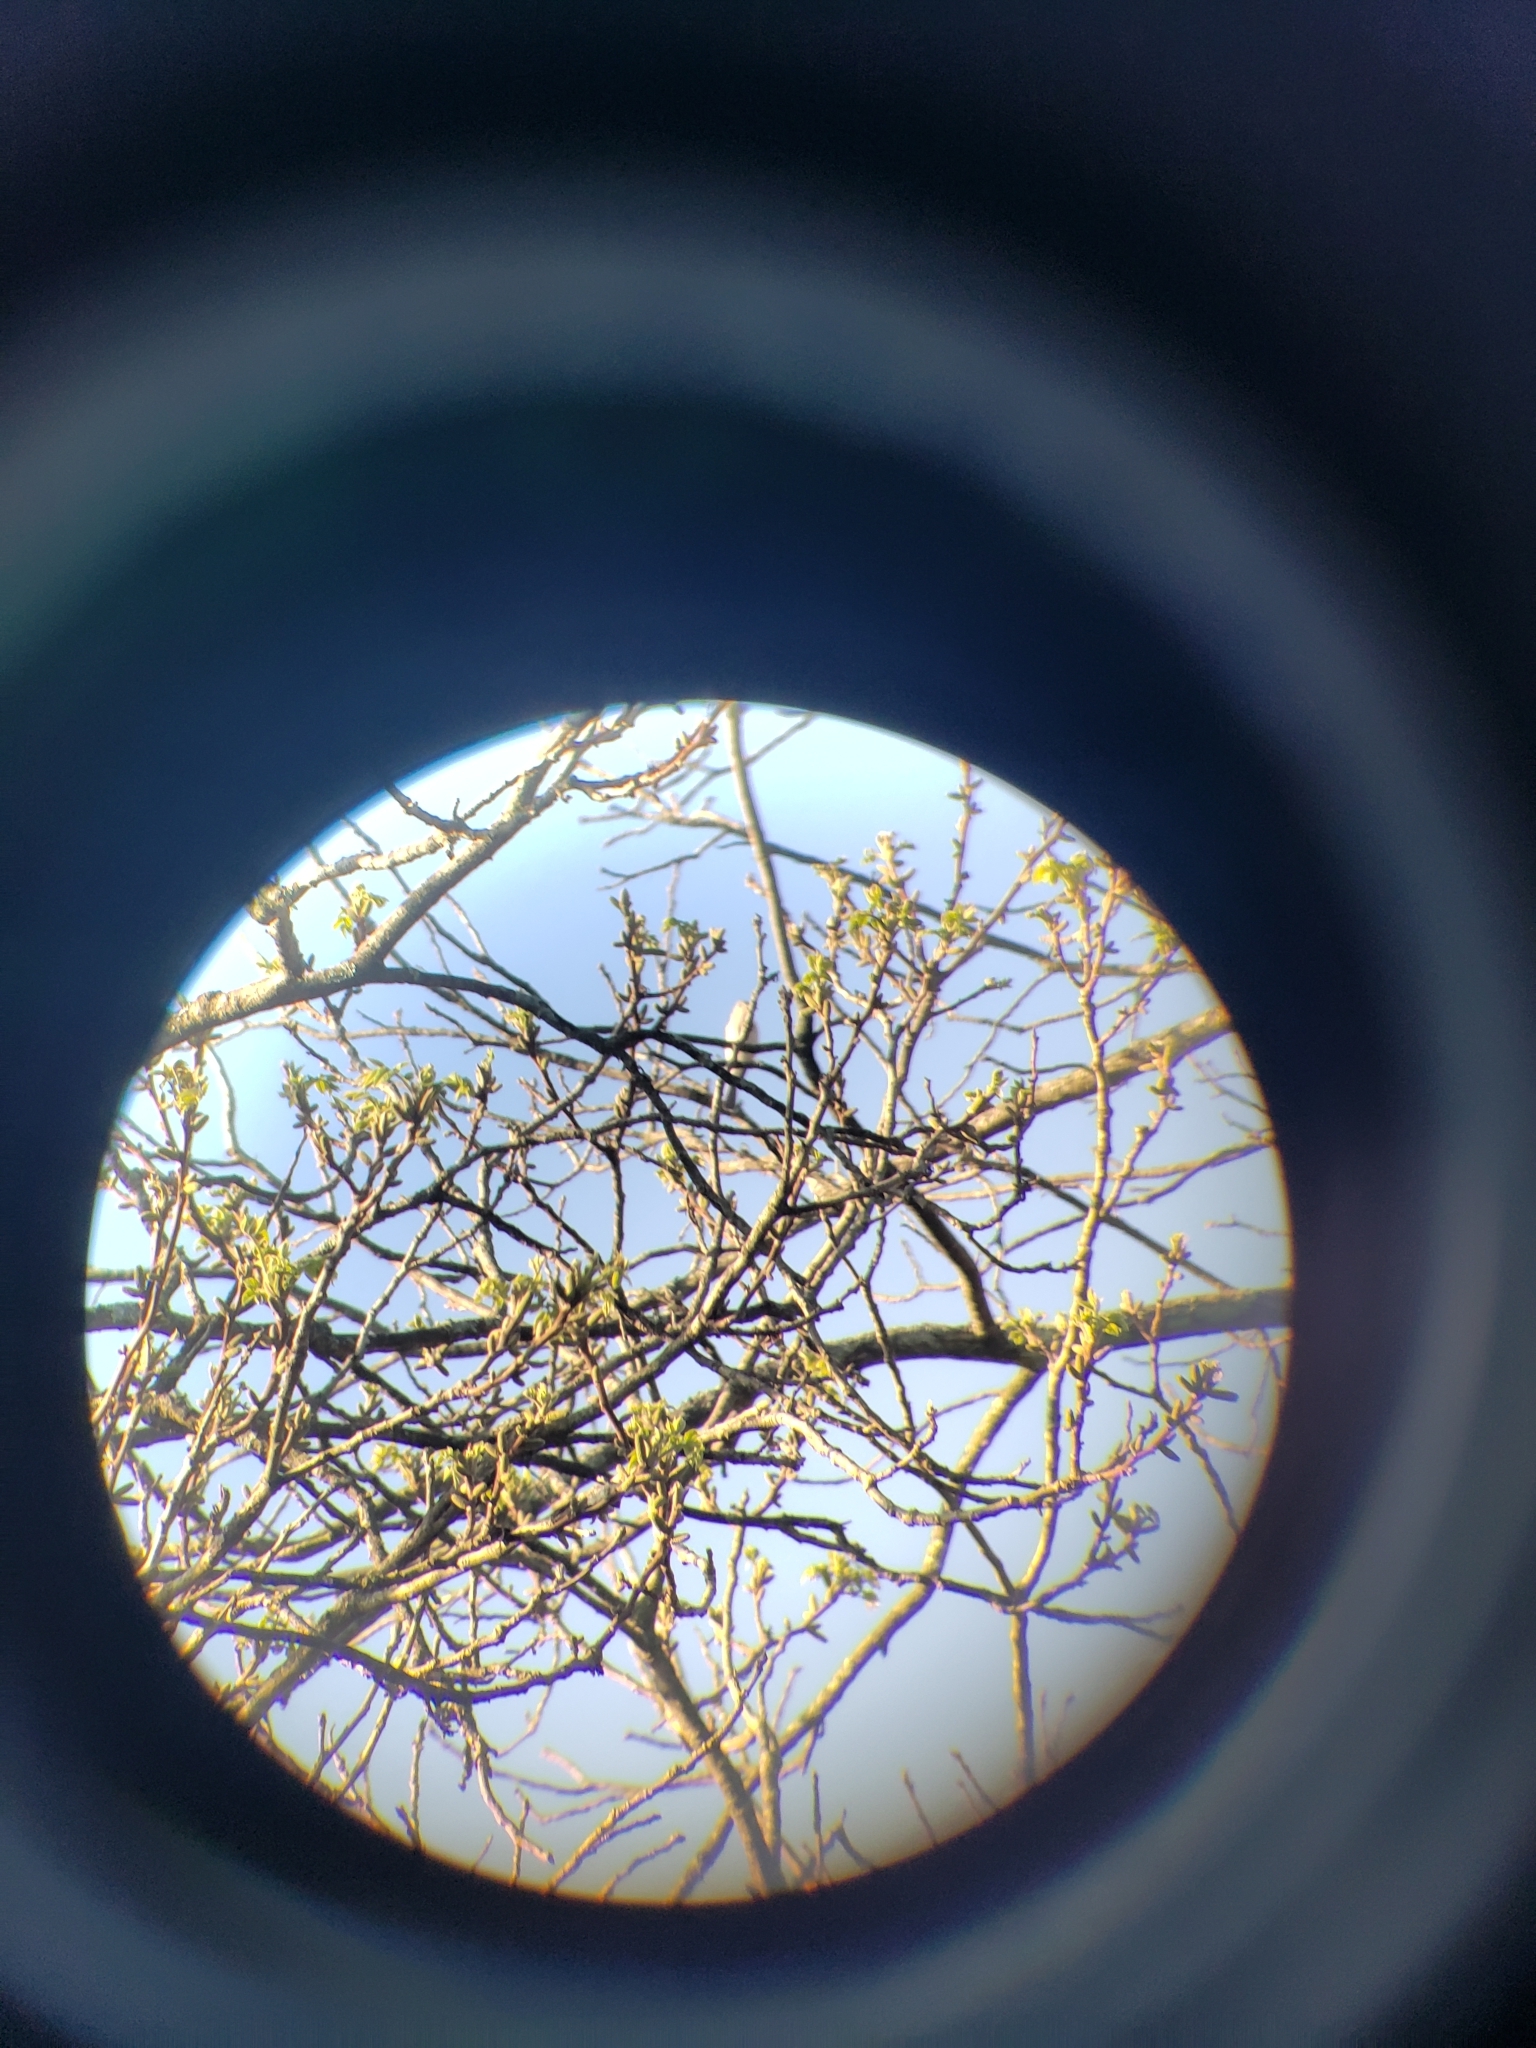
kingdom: Animalia
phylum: Chordata
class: Aves
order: Passeriformes
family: Paridae
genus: Baeolophus
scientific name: Baeolophus bicolor
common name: Tufted titmouse
